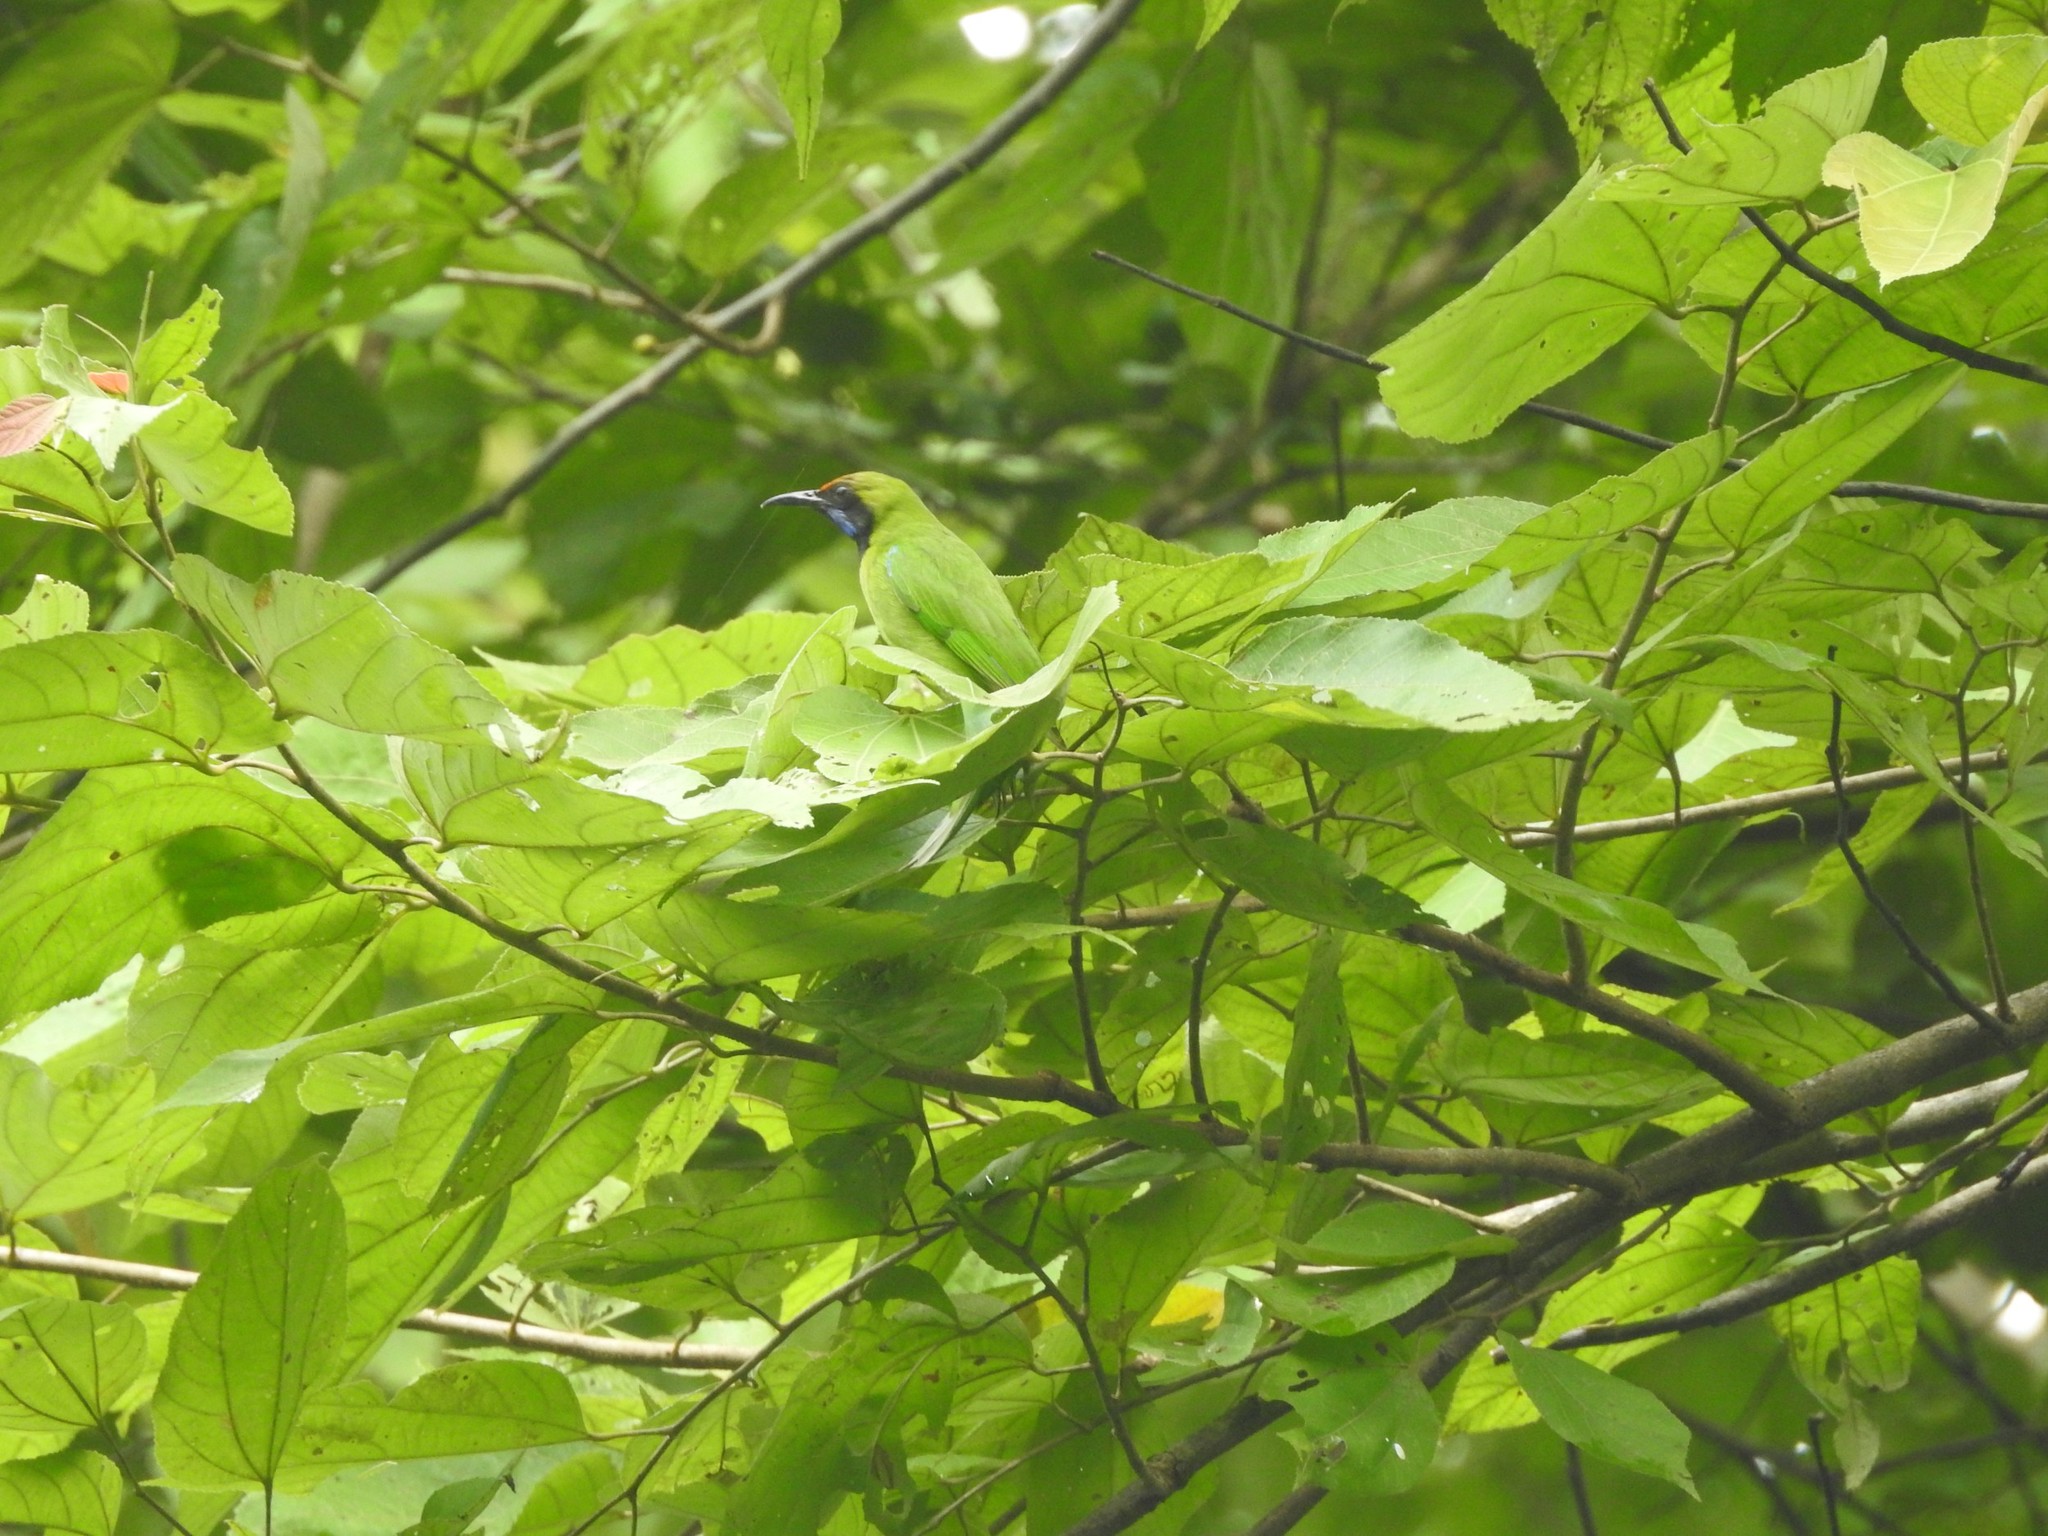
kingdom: Animalia
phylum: Chordata
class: Aves
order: Passeriformes
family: Chloropseidae
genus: Chloropsis
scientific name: Chloropsis aurifrons
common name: Golden-fronted leafbird
